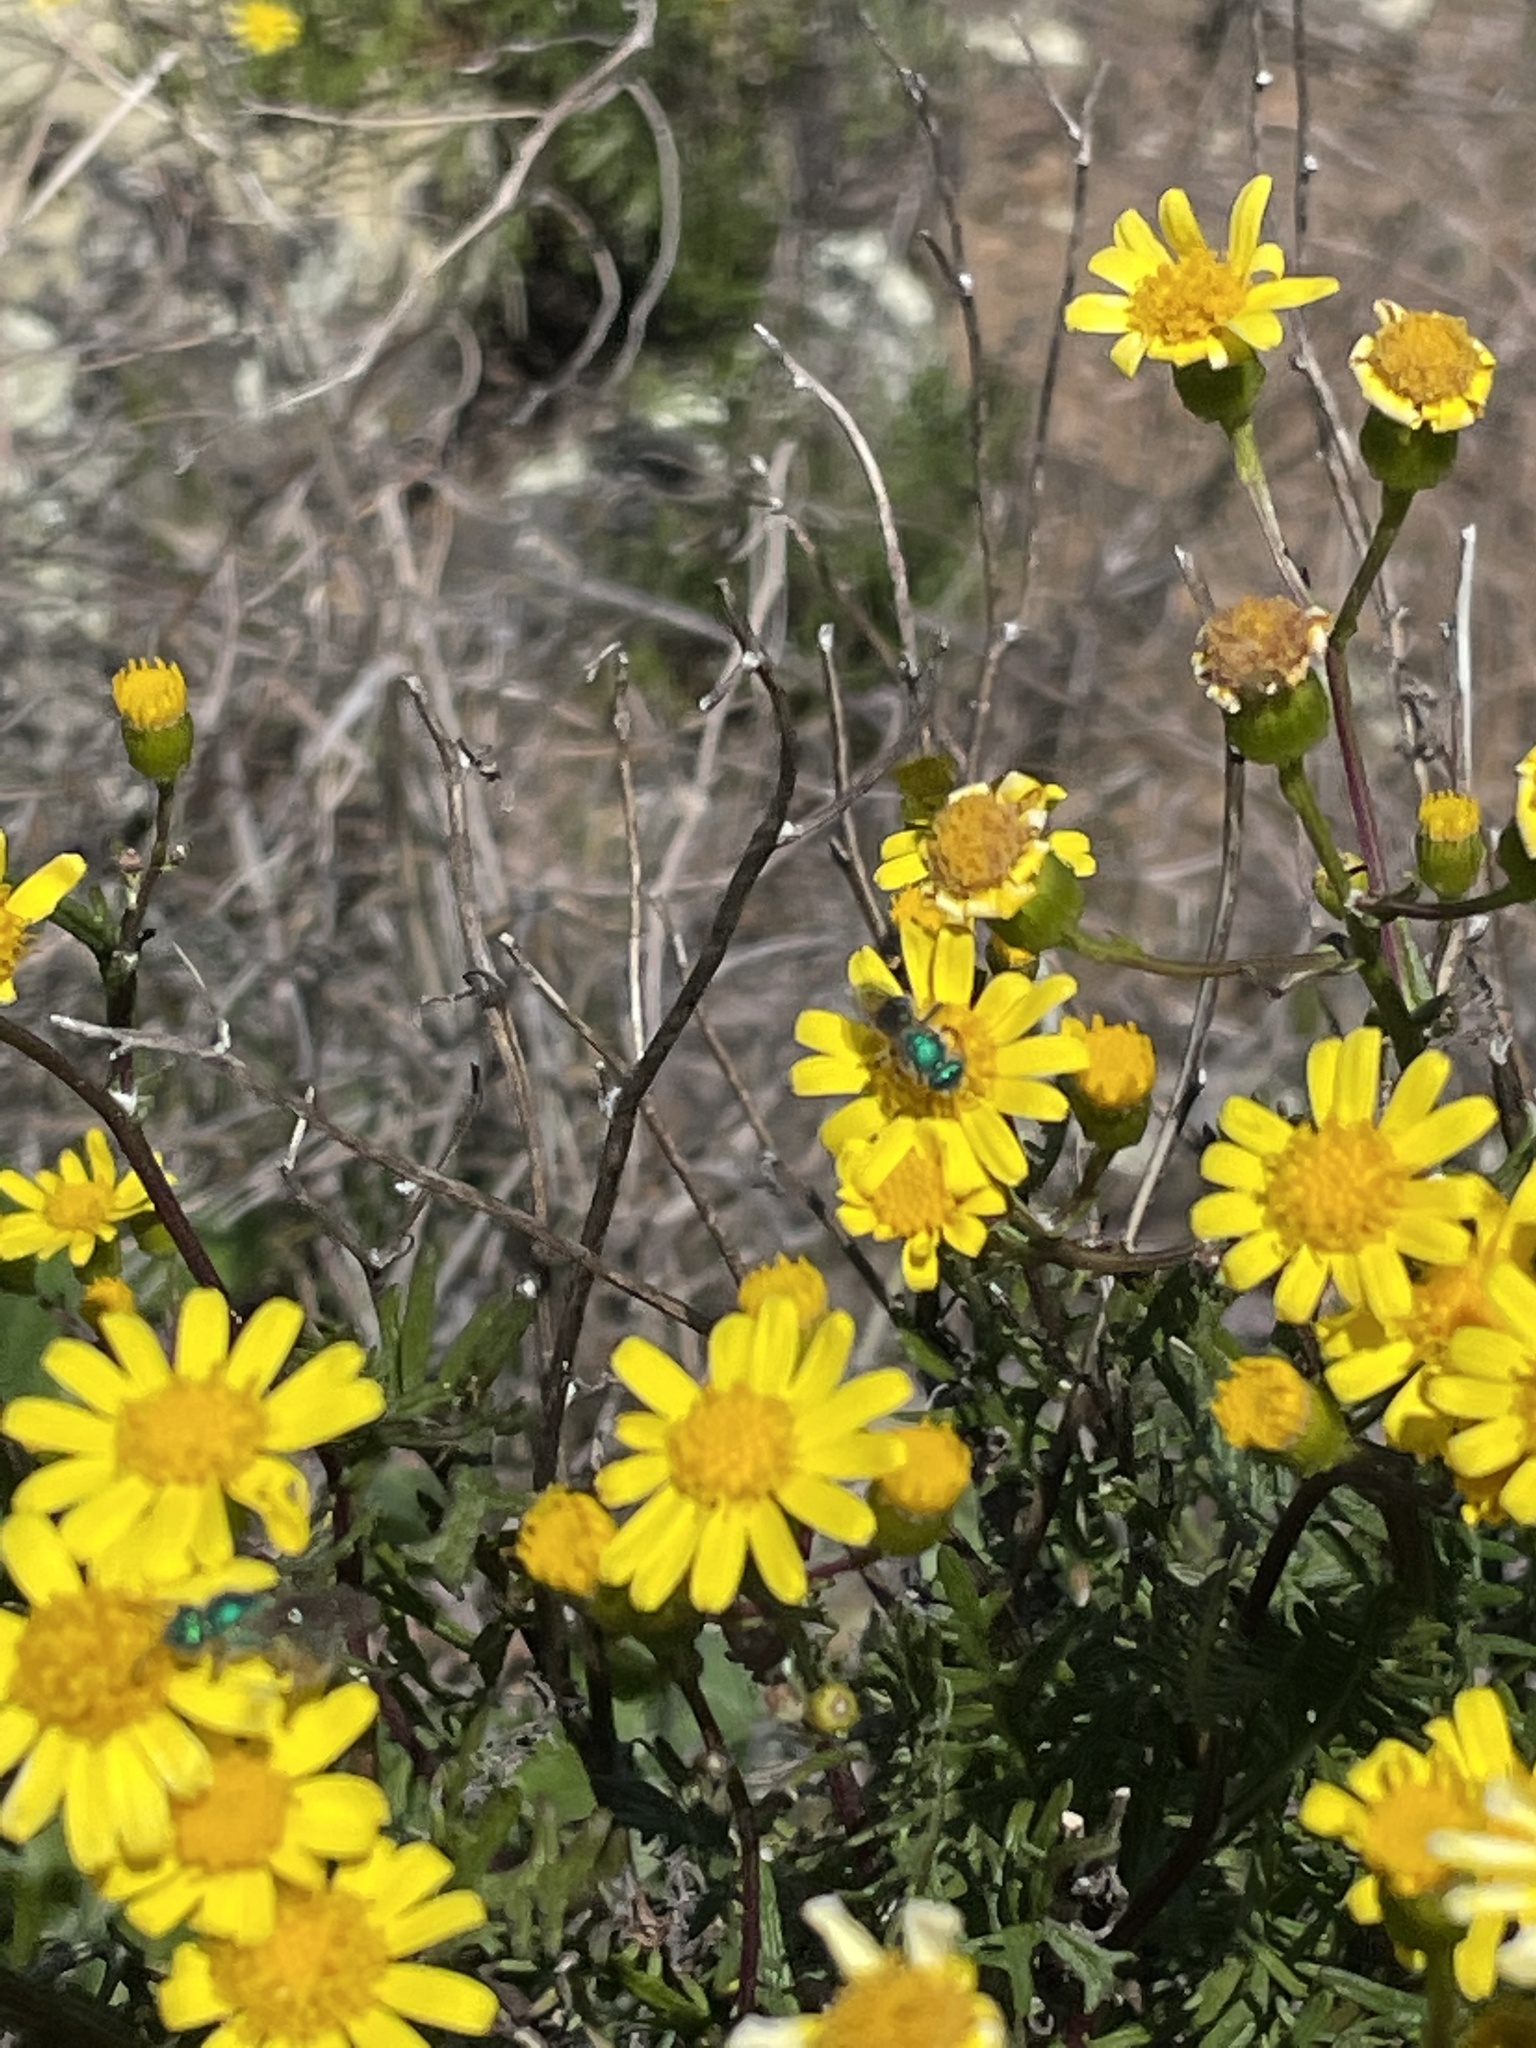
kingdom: Animalia
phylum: Arthropoda
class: Insecta
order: Hymenoptera
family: Halictidae
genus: Agapostemon
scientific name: Agapostemon texanus
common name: Texas striped sweat bee
